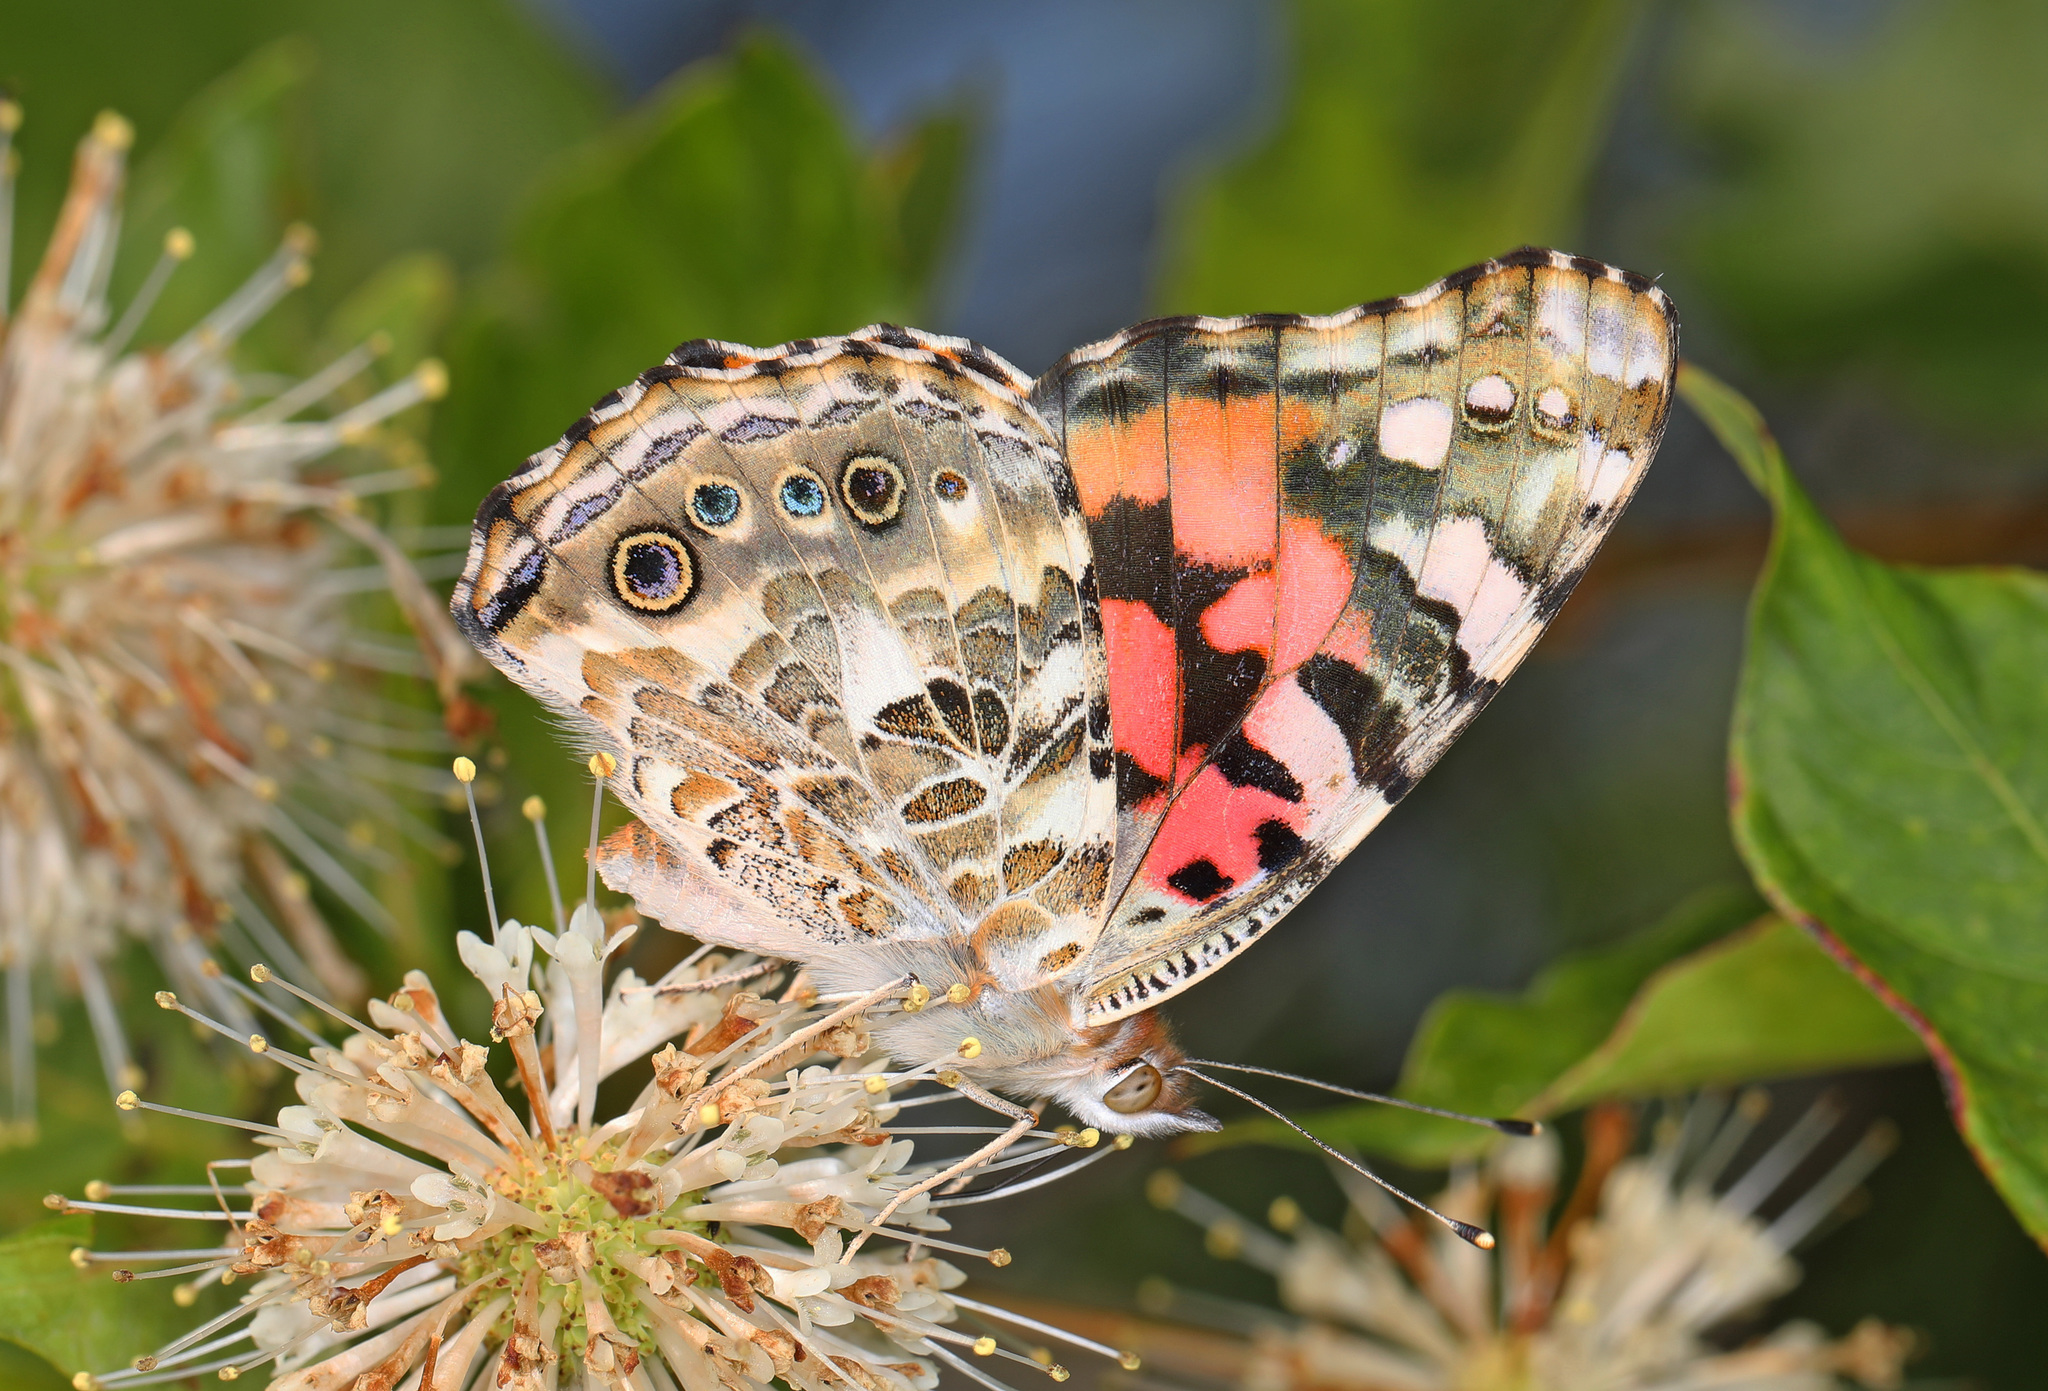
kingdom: Animalia
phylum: Arthropoda
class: Insecta
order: Lepidoptera
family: Nymphalidae
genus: Vanessa
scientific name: Vanessa cardui
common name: Painted lady
